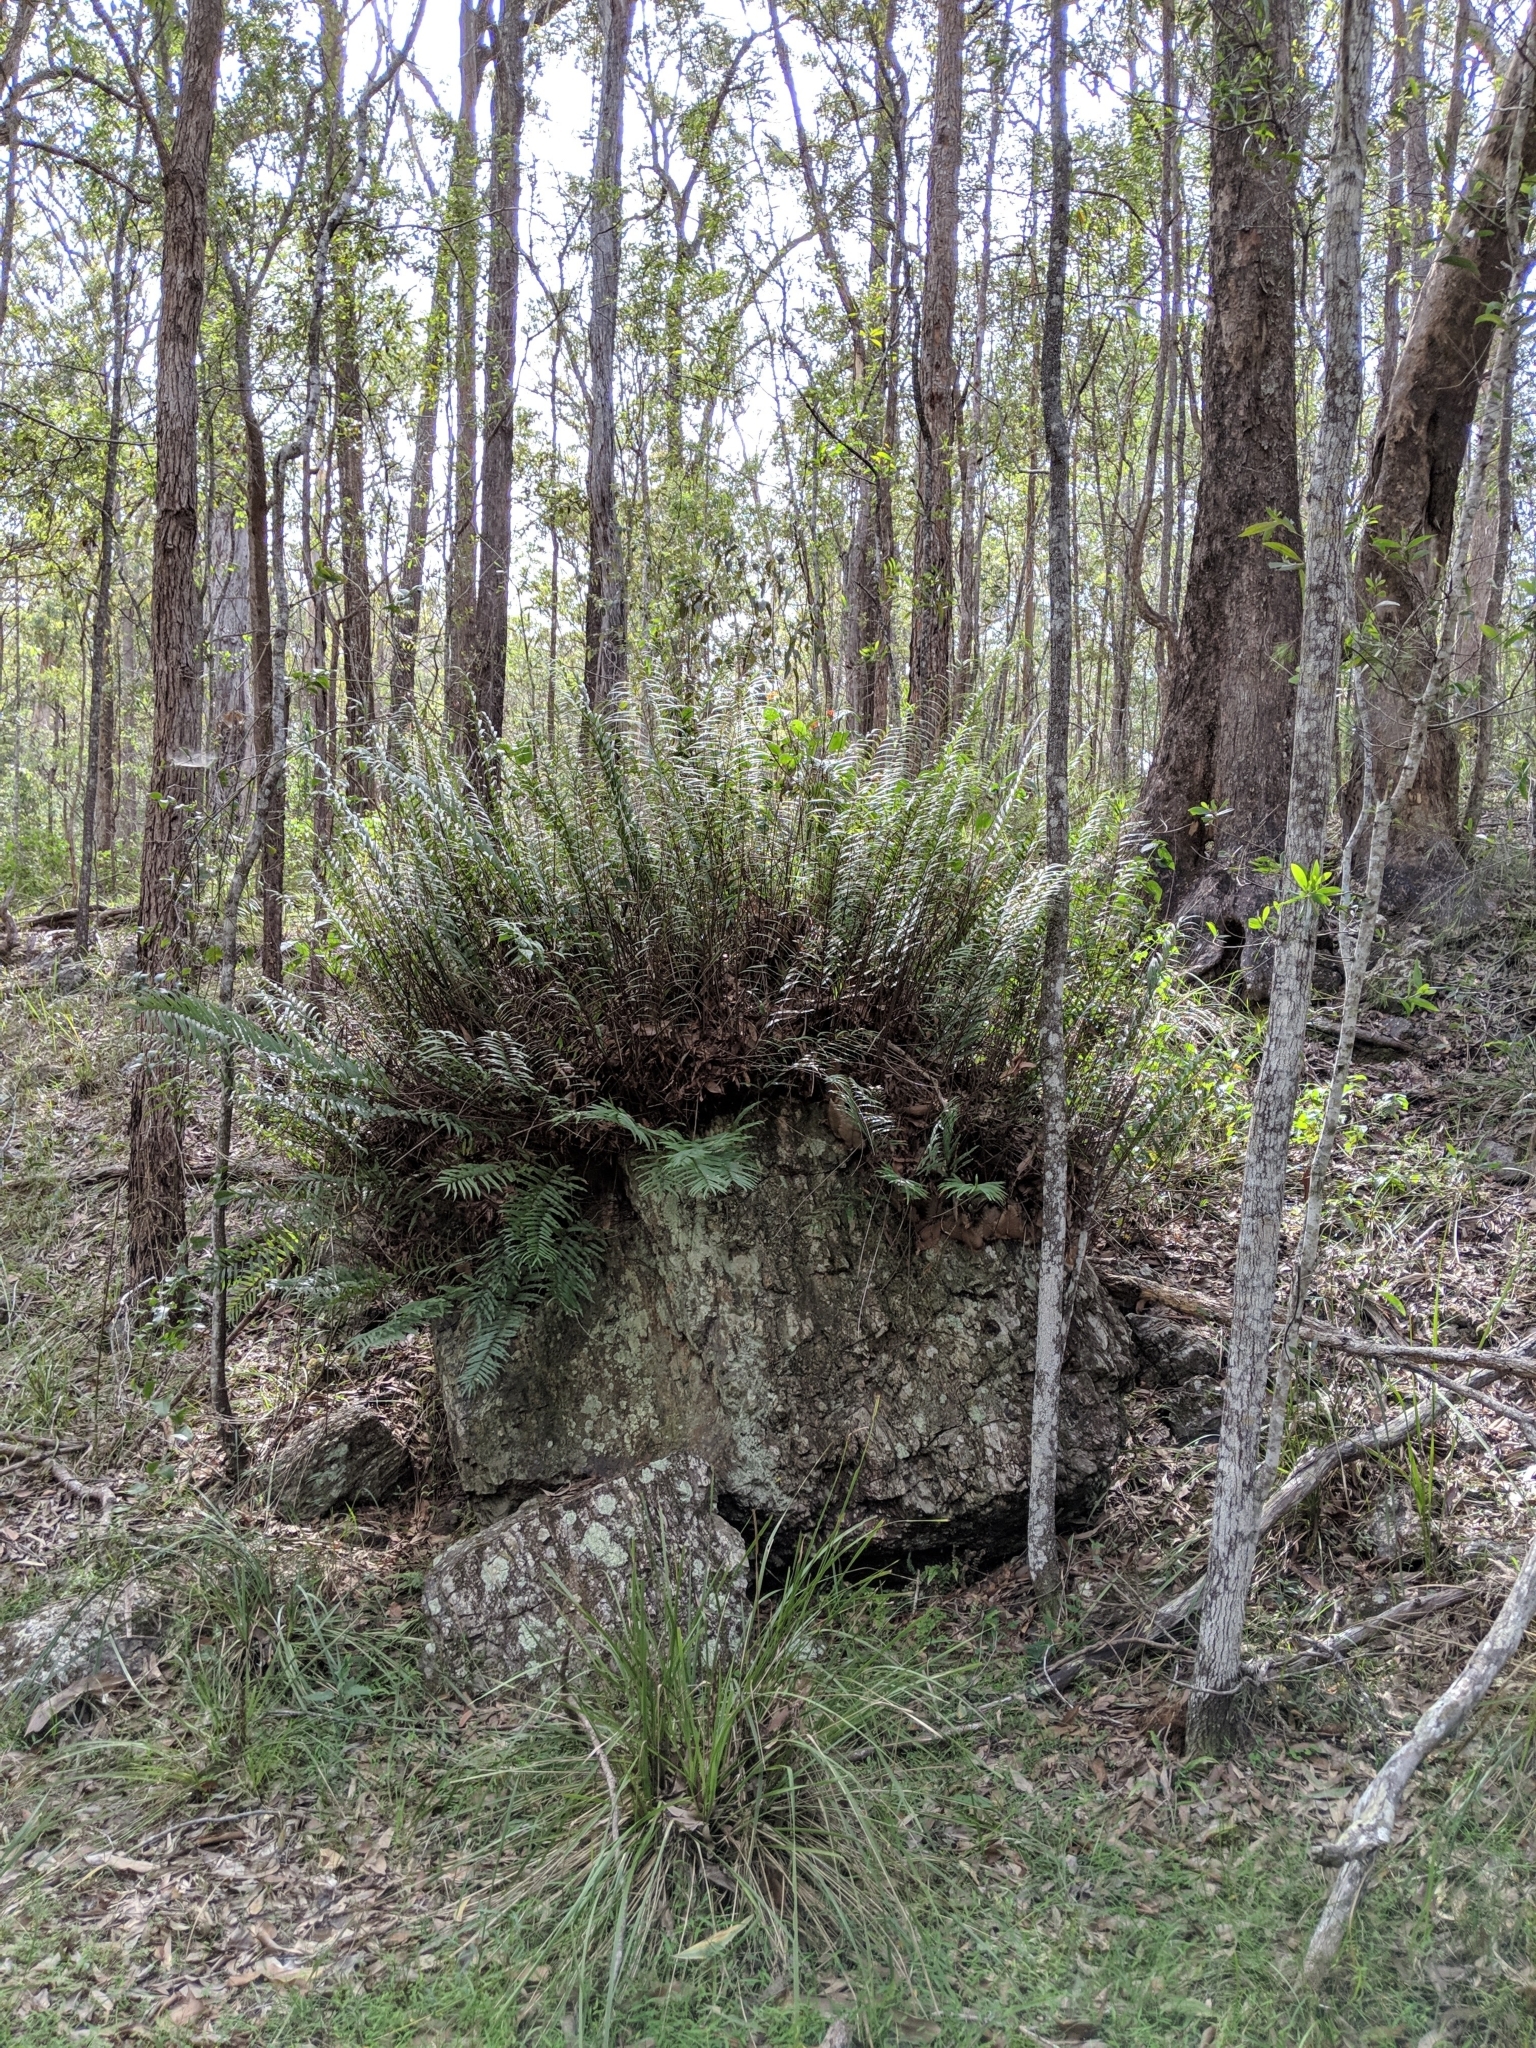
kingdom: Plantae
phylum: Tracheophyta
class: Polypodiopsida
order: Polypodiales
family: Polypodiaceae
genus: Drynaria
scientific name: Drynaria rigidula
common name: Basket fern
